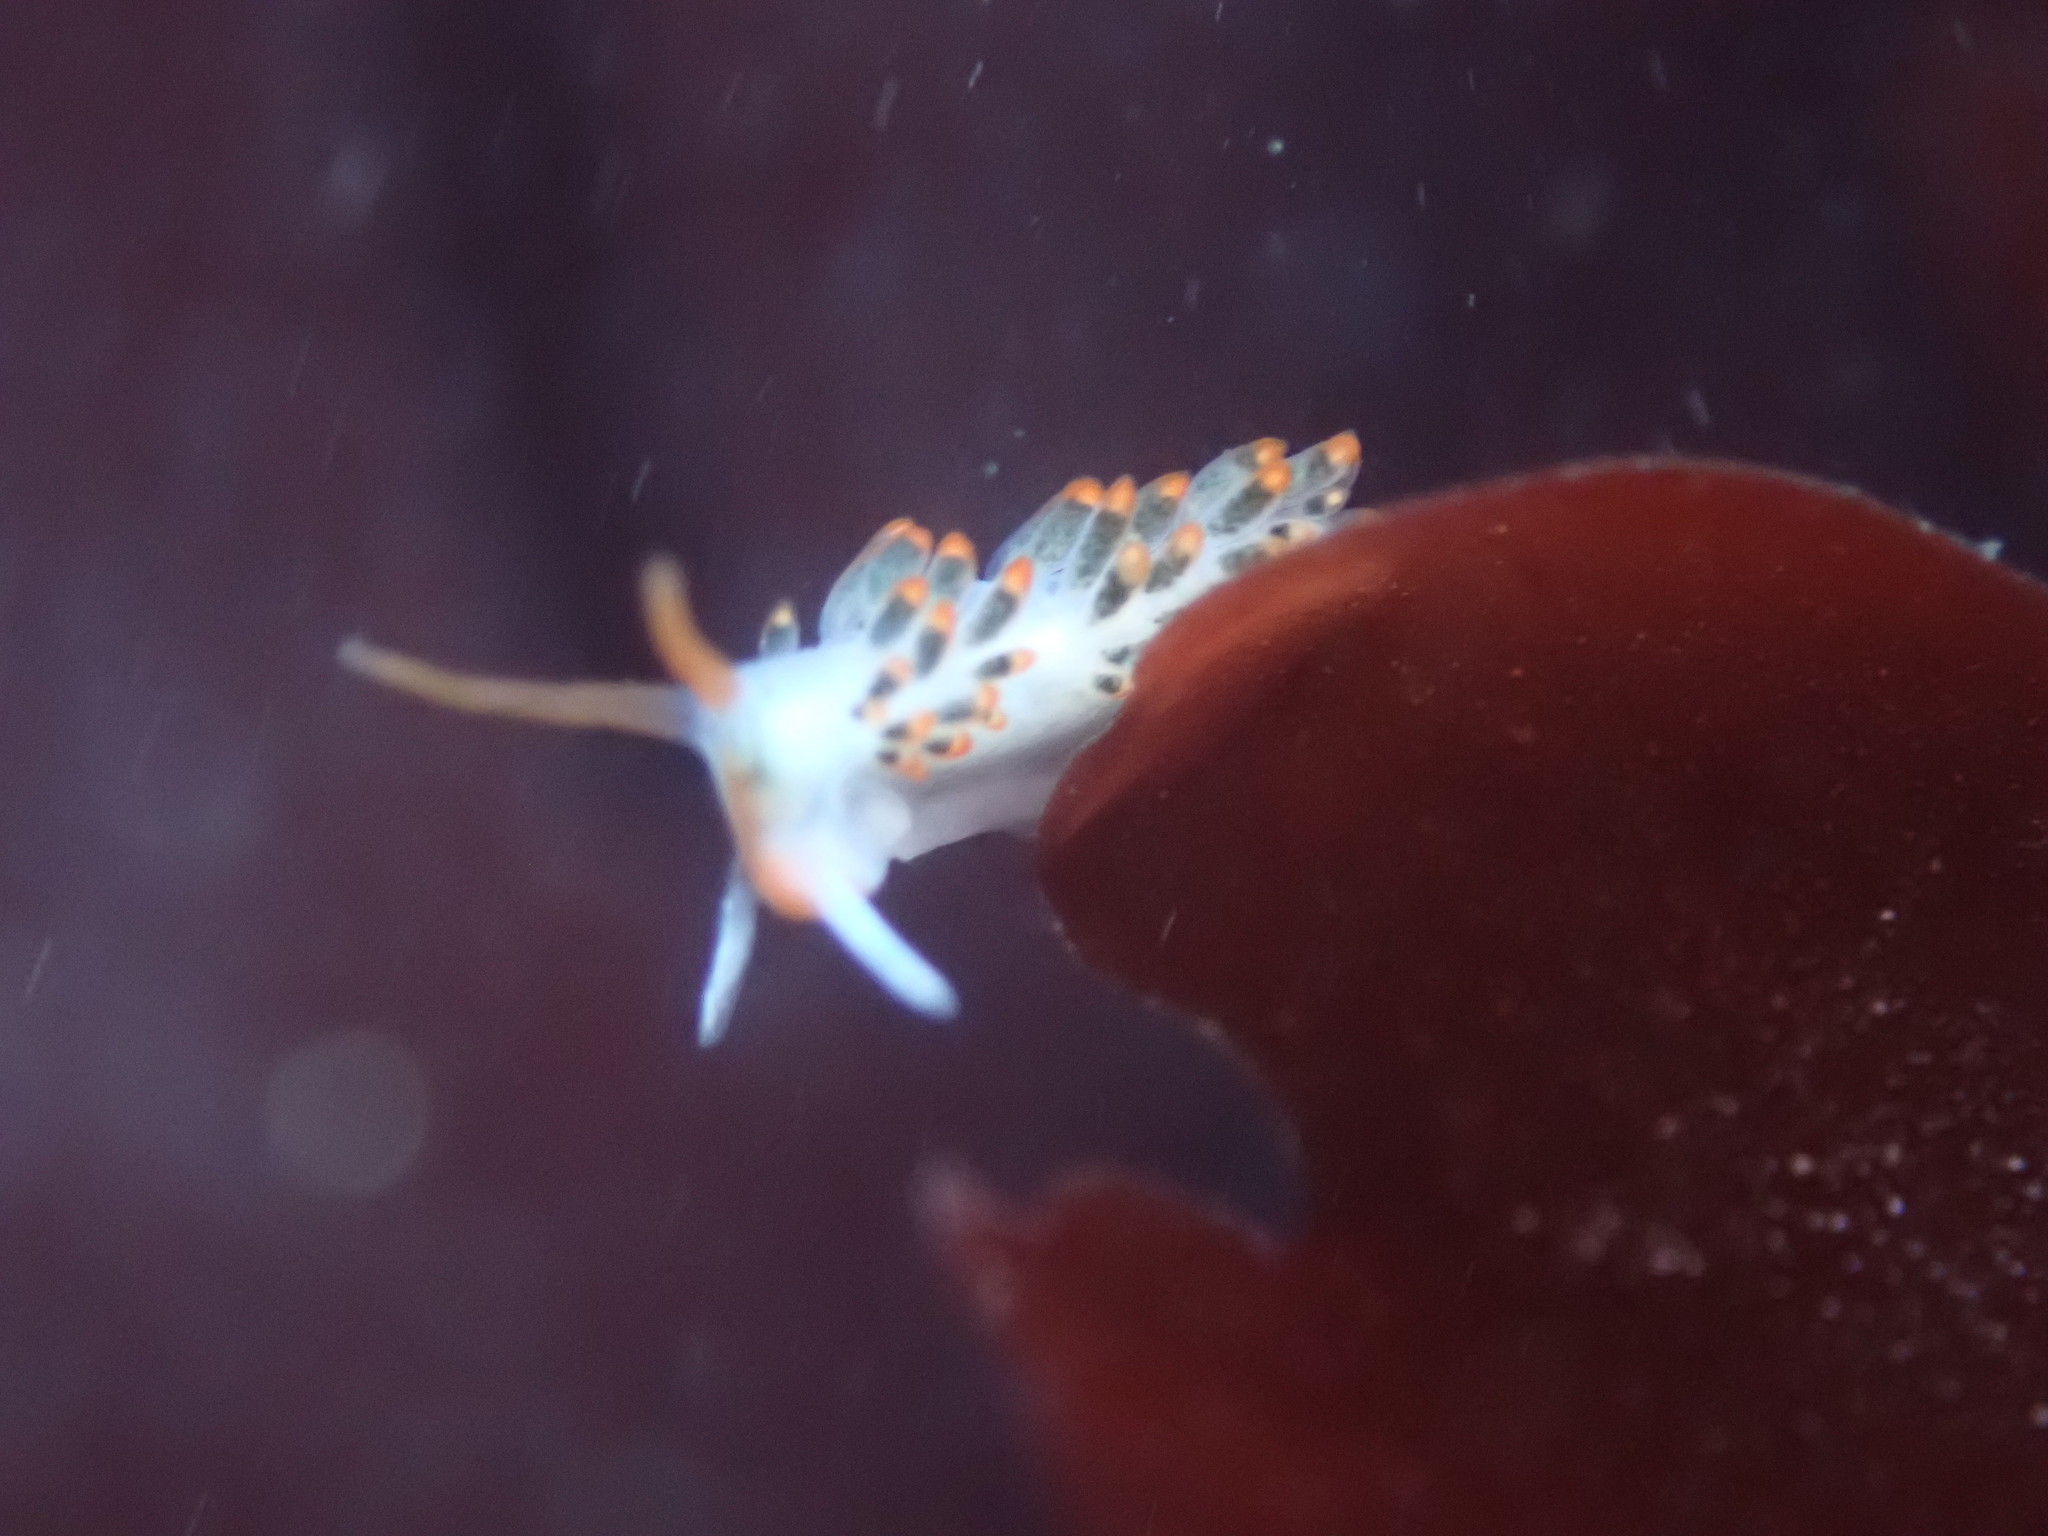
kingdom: Animalia
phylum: Mollusca
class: Gastropoda
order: Nudibranchia
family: Trinchesiidae
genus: Diaphoreolis
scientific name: Diaphoreolis lagunae
